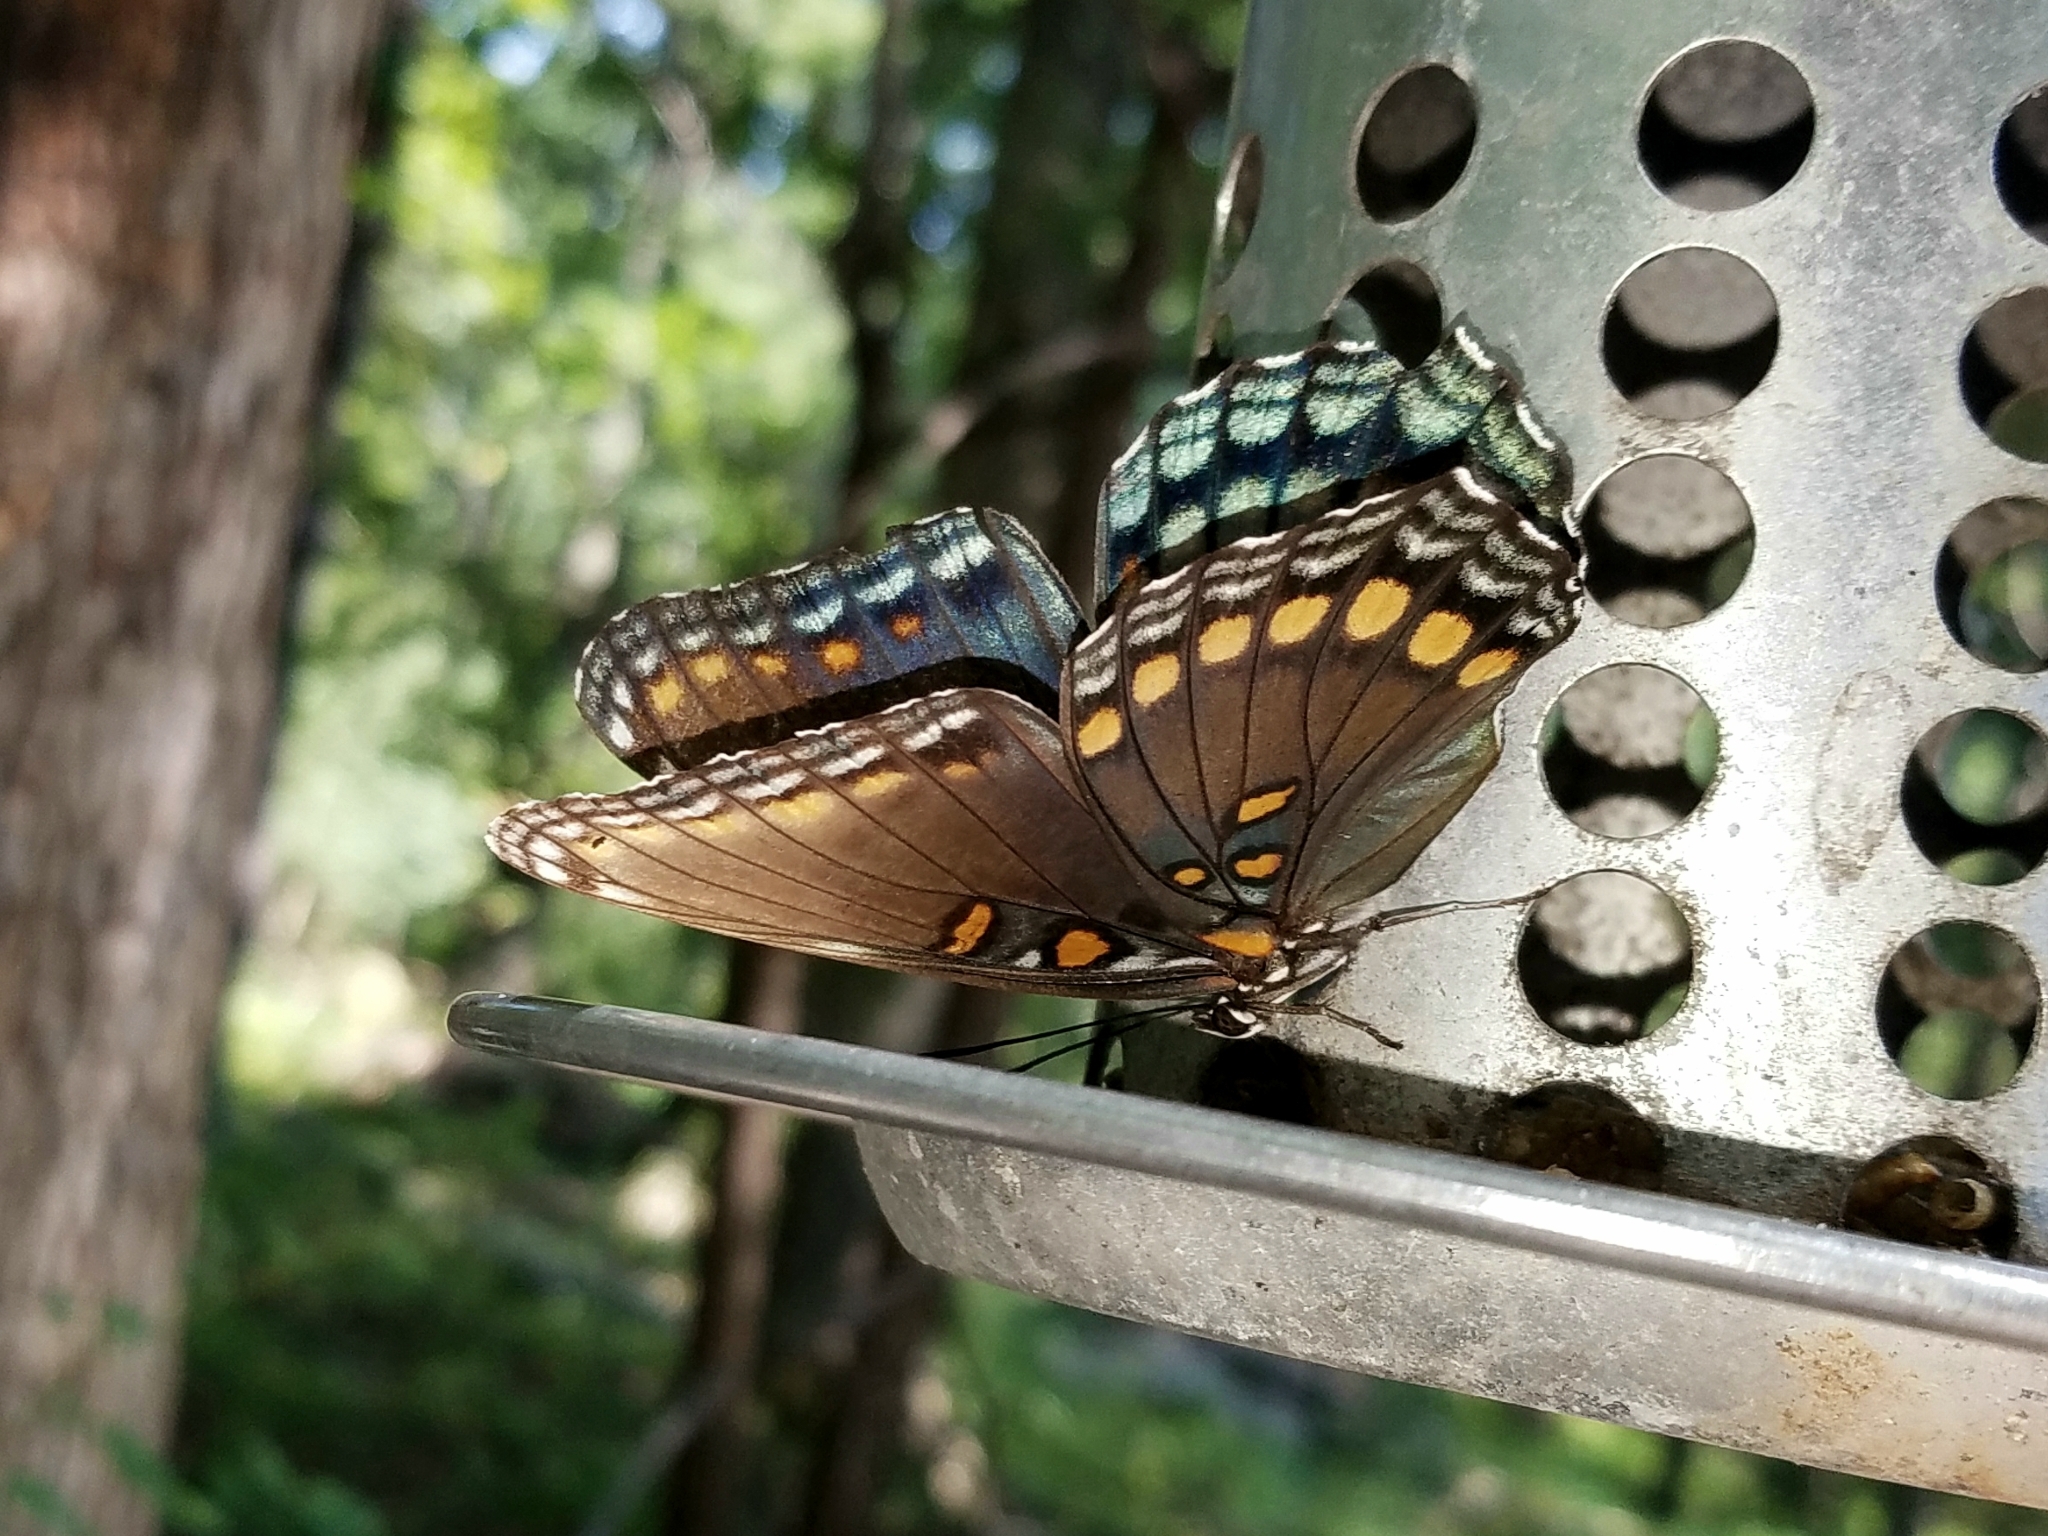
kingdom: Animalia
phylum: Arthropoda
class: Insecta
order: Lepidoptera
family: Nymphalidae
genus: Limenitis
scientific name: Limenitis astyanax
